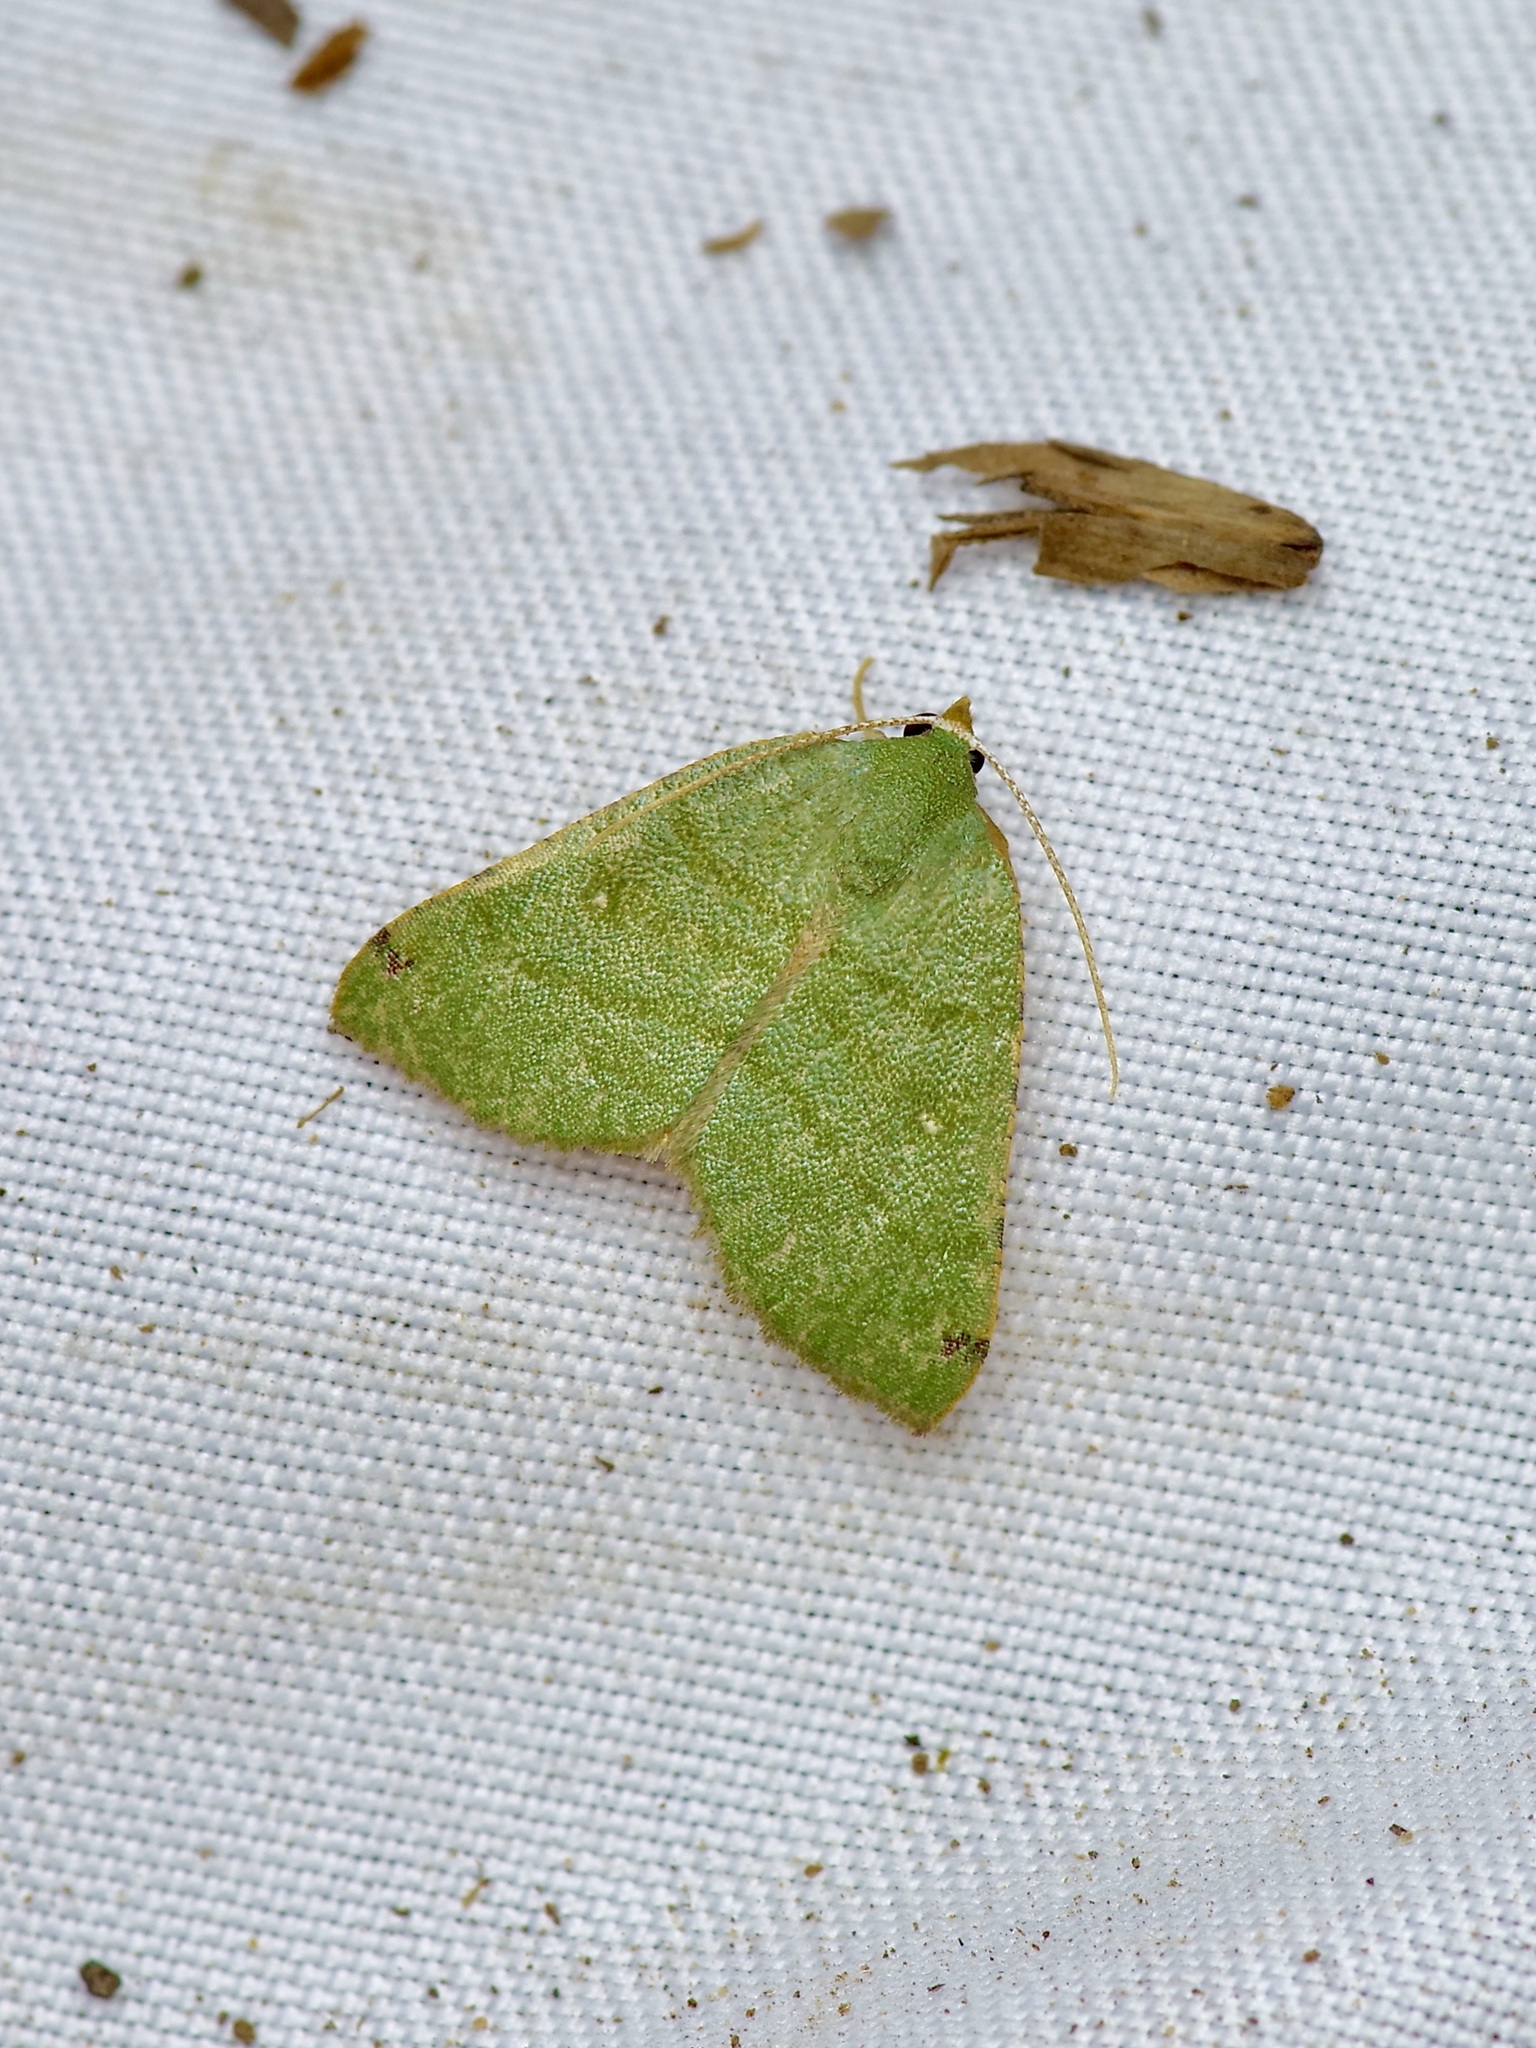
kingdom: Animalia
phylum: Arthropoda
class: Insecta
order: Lepidoptera
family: Geometridae
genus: Chloraspilates
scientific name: Chloraspilates bicoloraria
